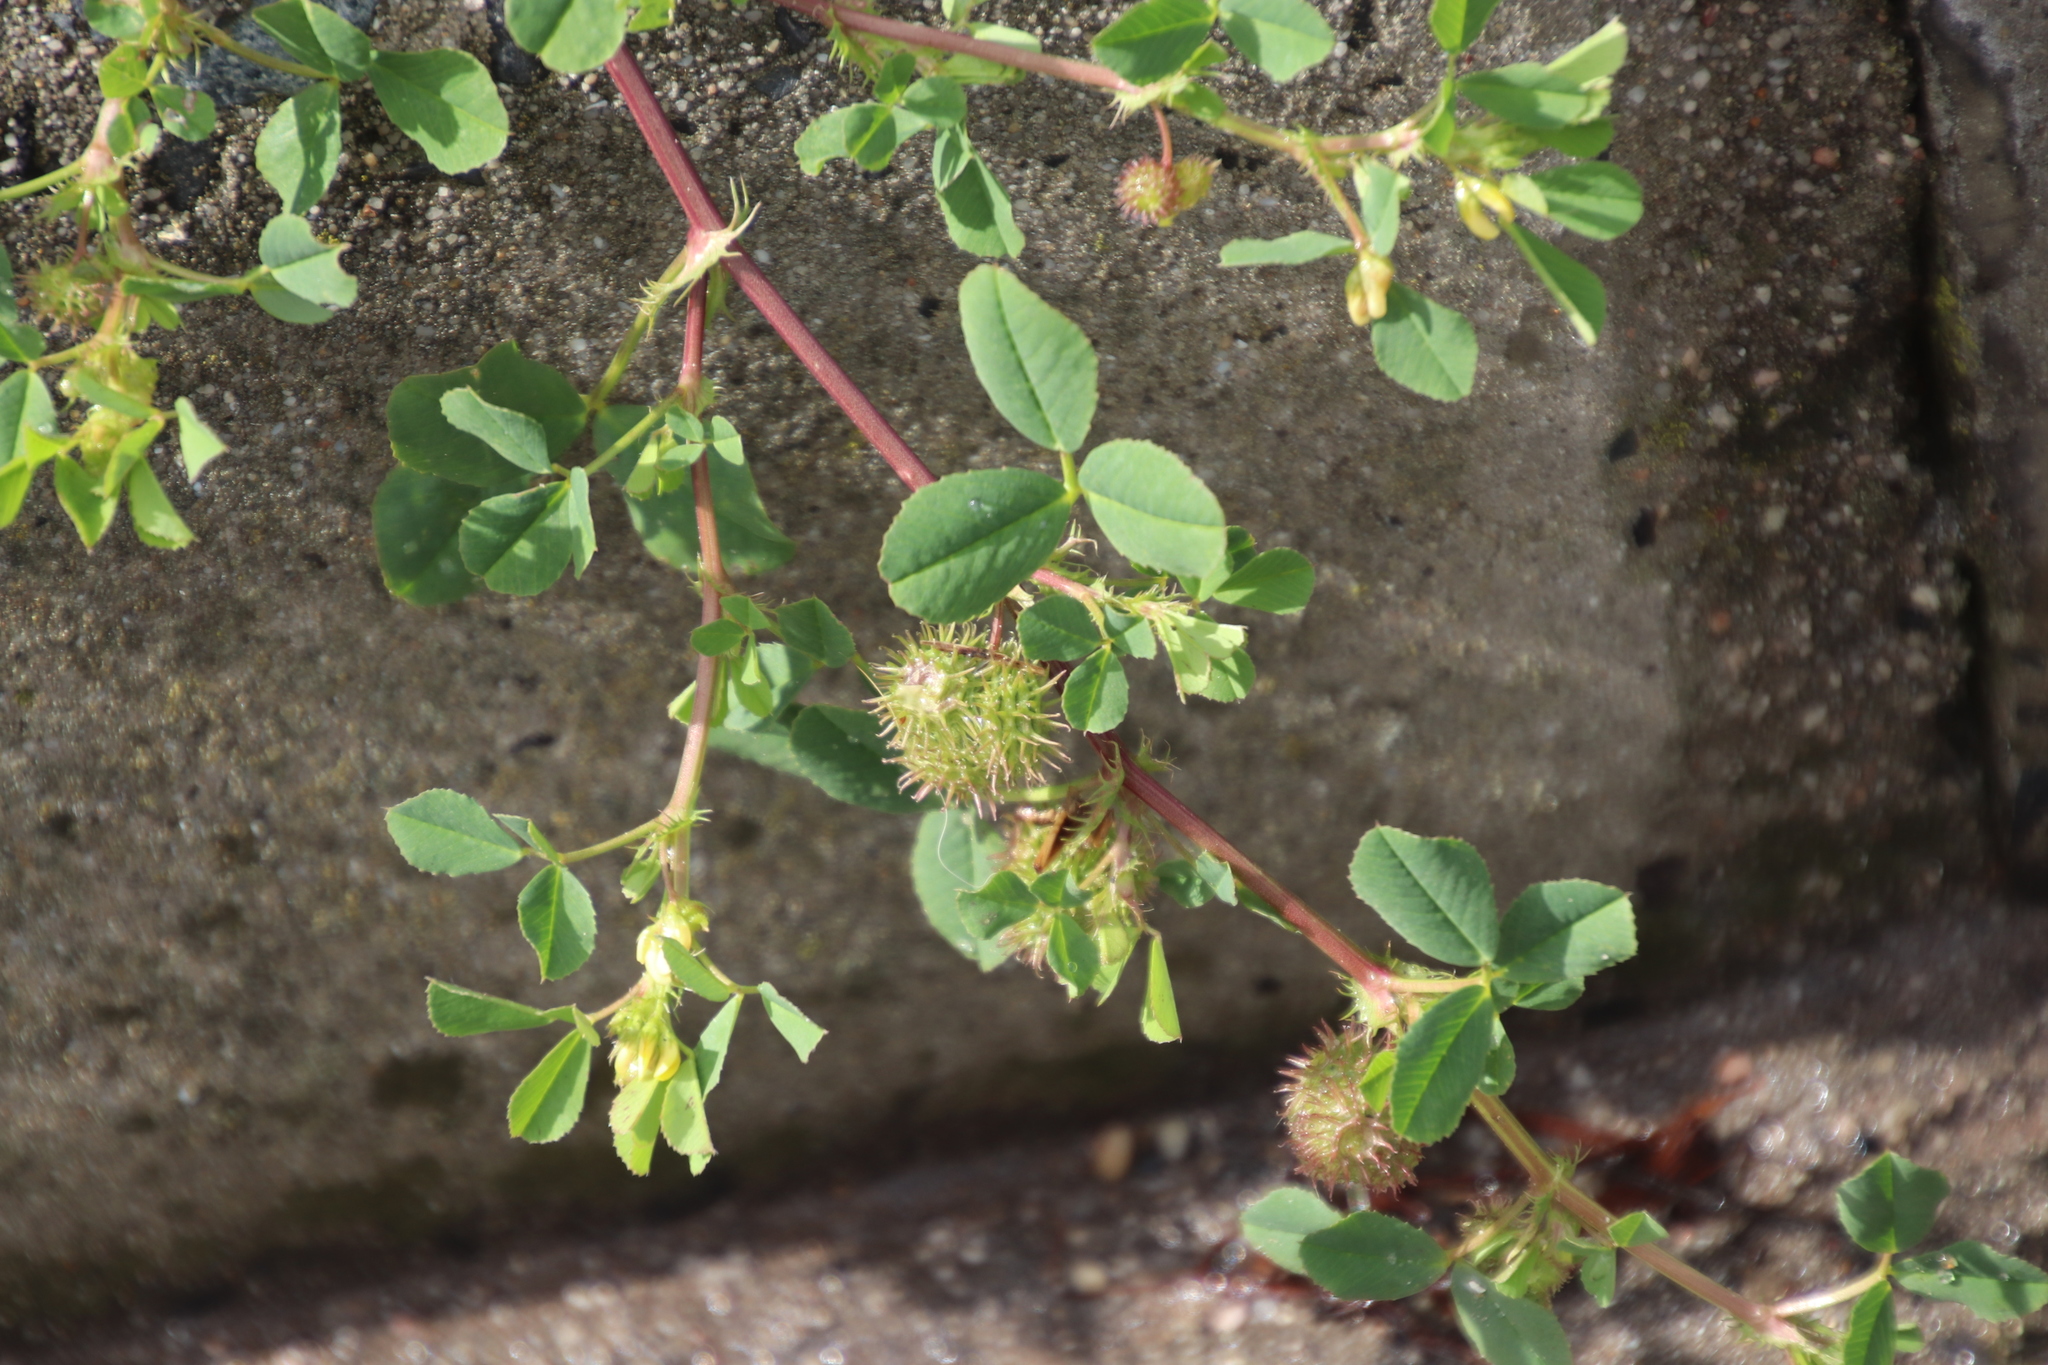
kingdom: Plantae
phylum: Tracheophyta
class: Magnoliopsida
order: Fabales
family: Fabaceae
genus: Medicago
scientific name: Medicago polymorpha
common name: Burclover
